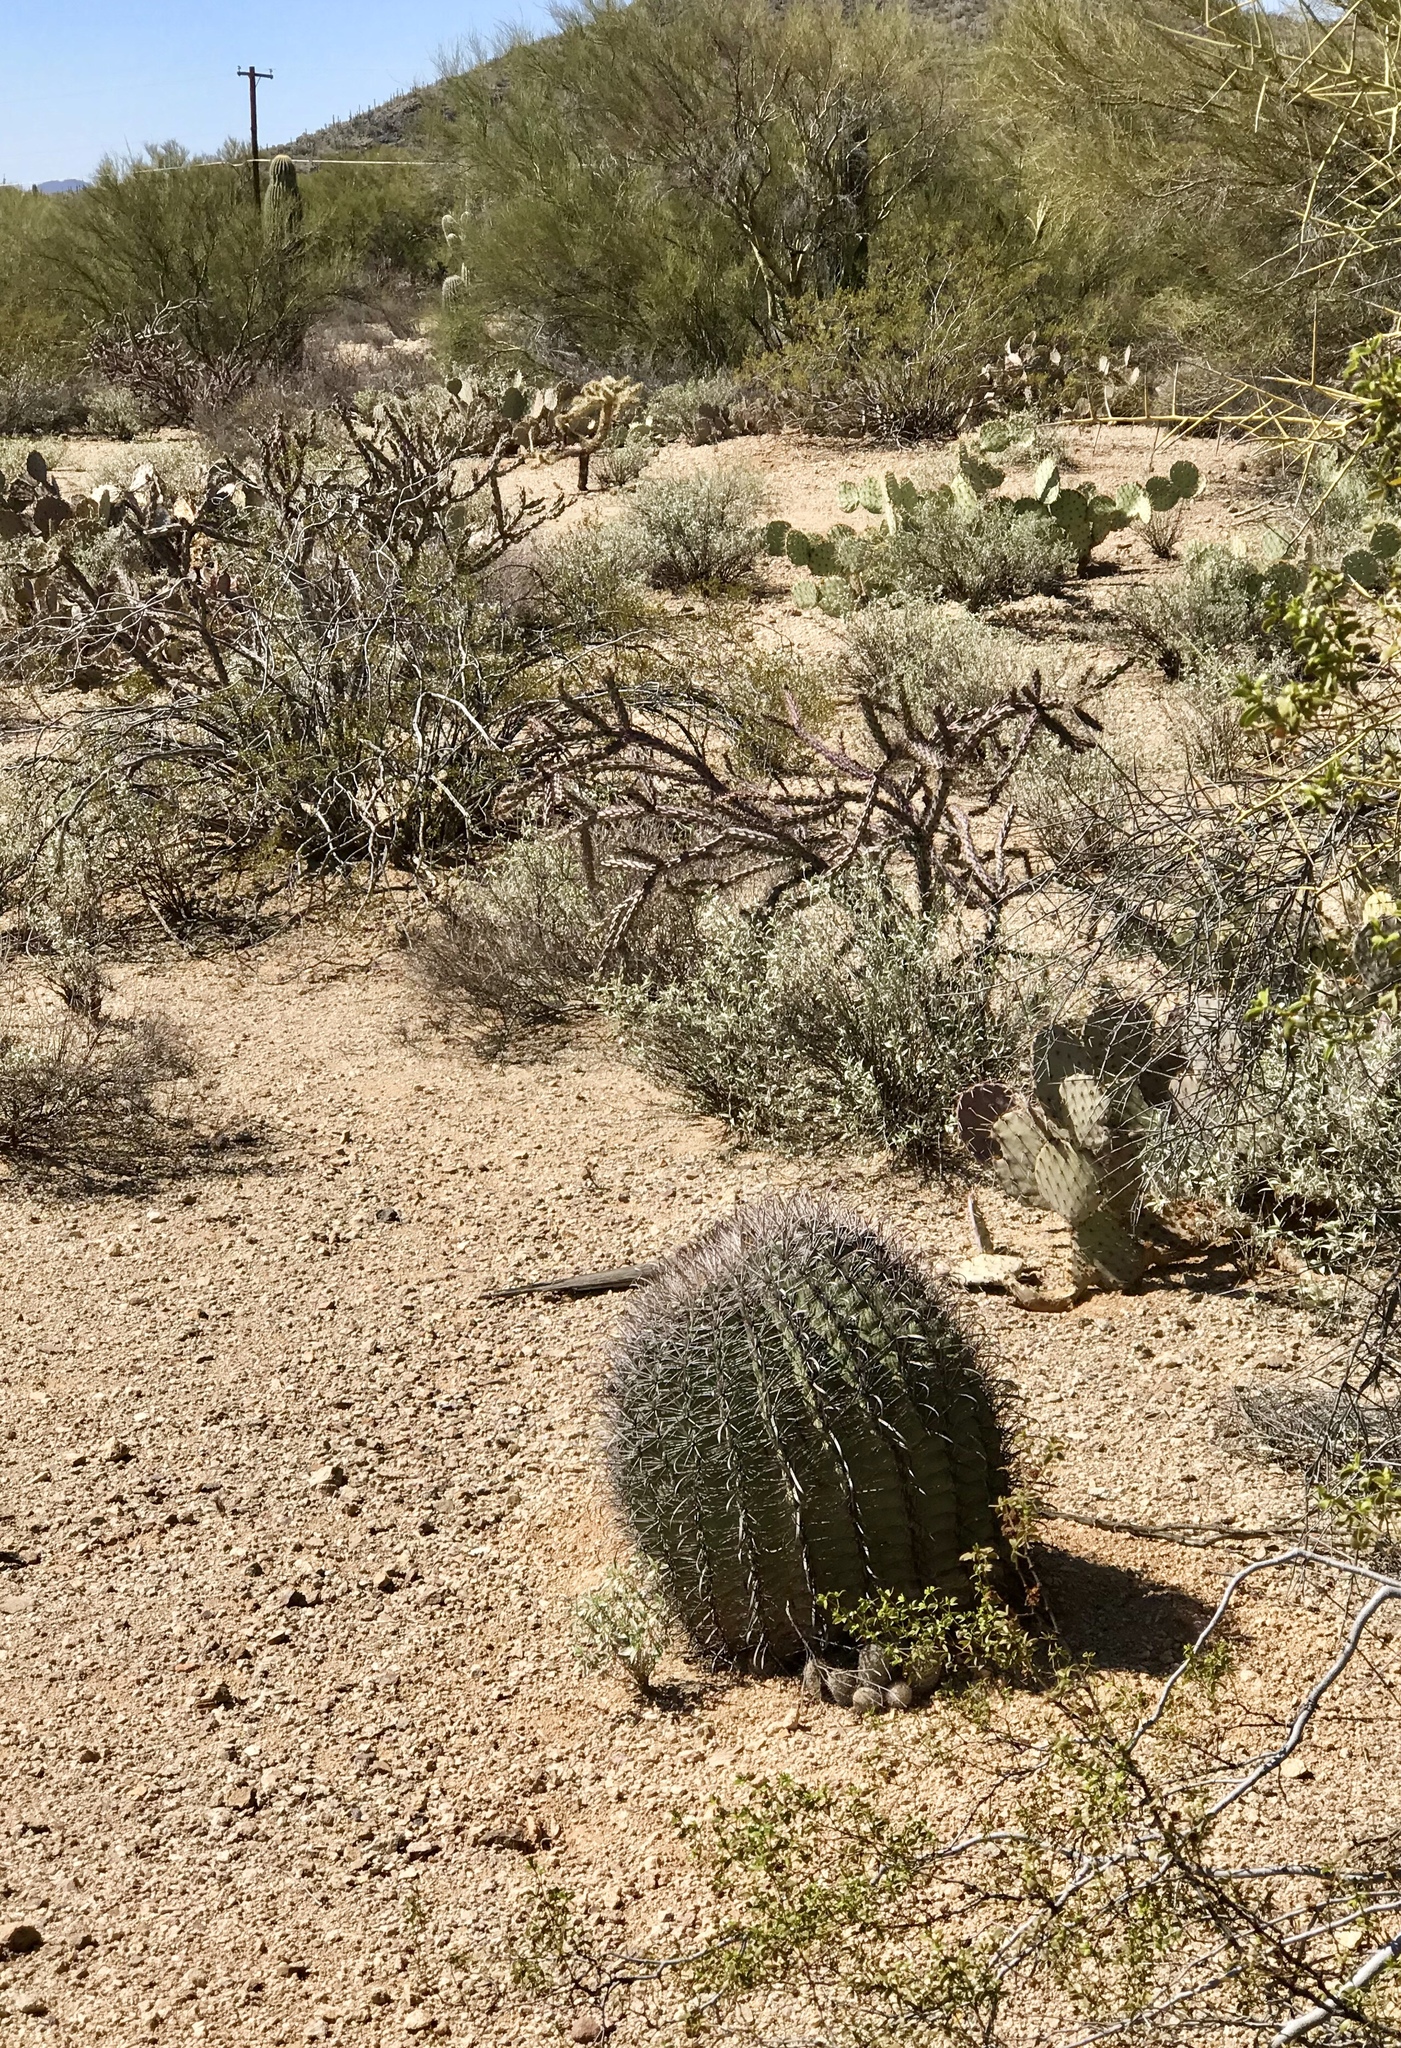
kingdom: Plantae
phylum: Tracheophyta
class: Magnoliopsida
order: Caryophyllales
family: Cactaceae
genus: Ferocactus
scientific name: Ferocactus wislizeni
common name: Candy barrel cactus
